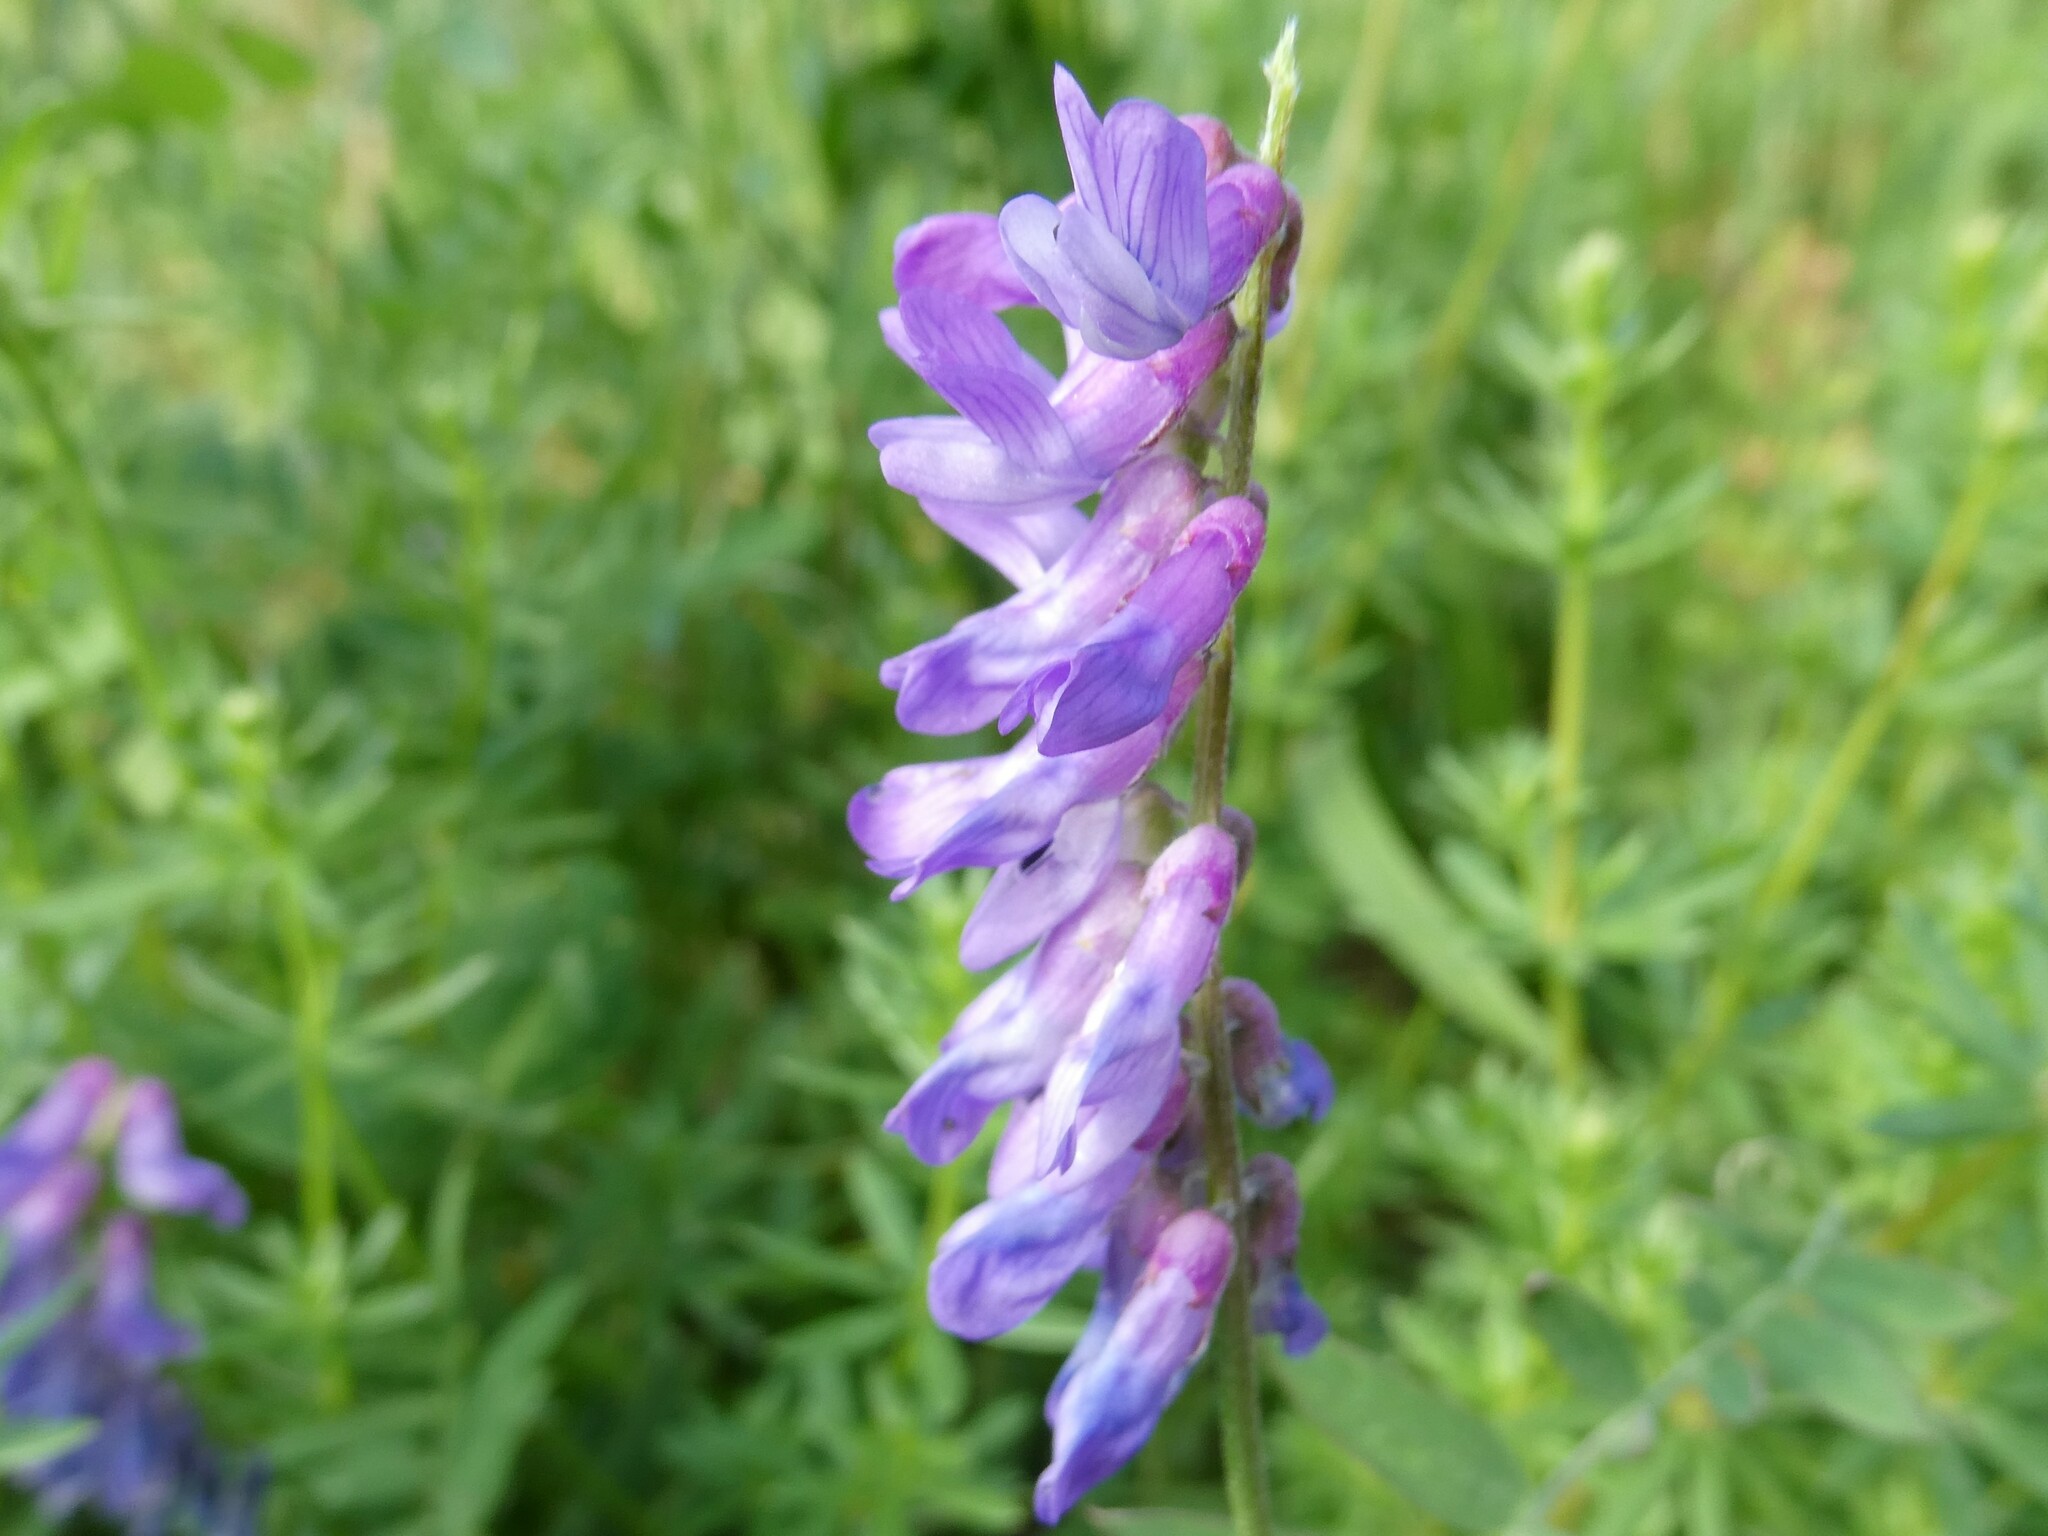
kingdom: Plantae
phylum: Tracheophyta
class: Magnoliopsida
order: Fabales
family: Fabaceae
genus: Vicia
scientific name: Vicia cracca
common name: Bird vetch
